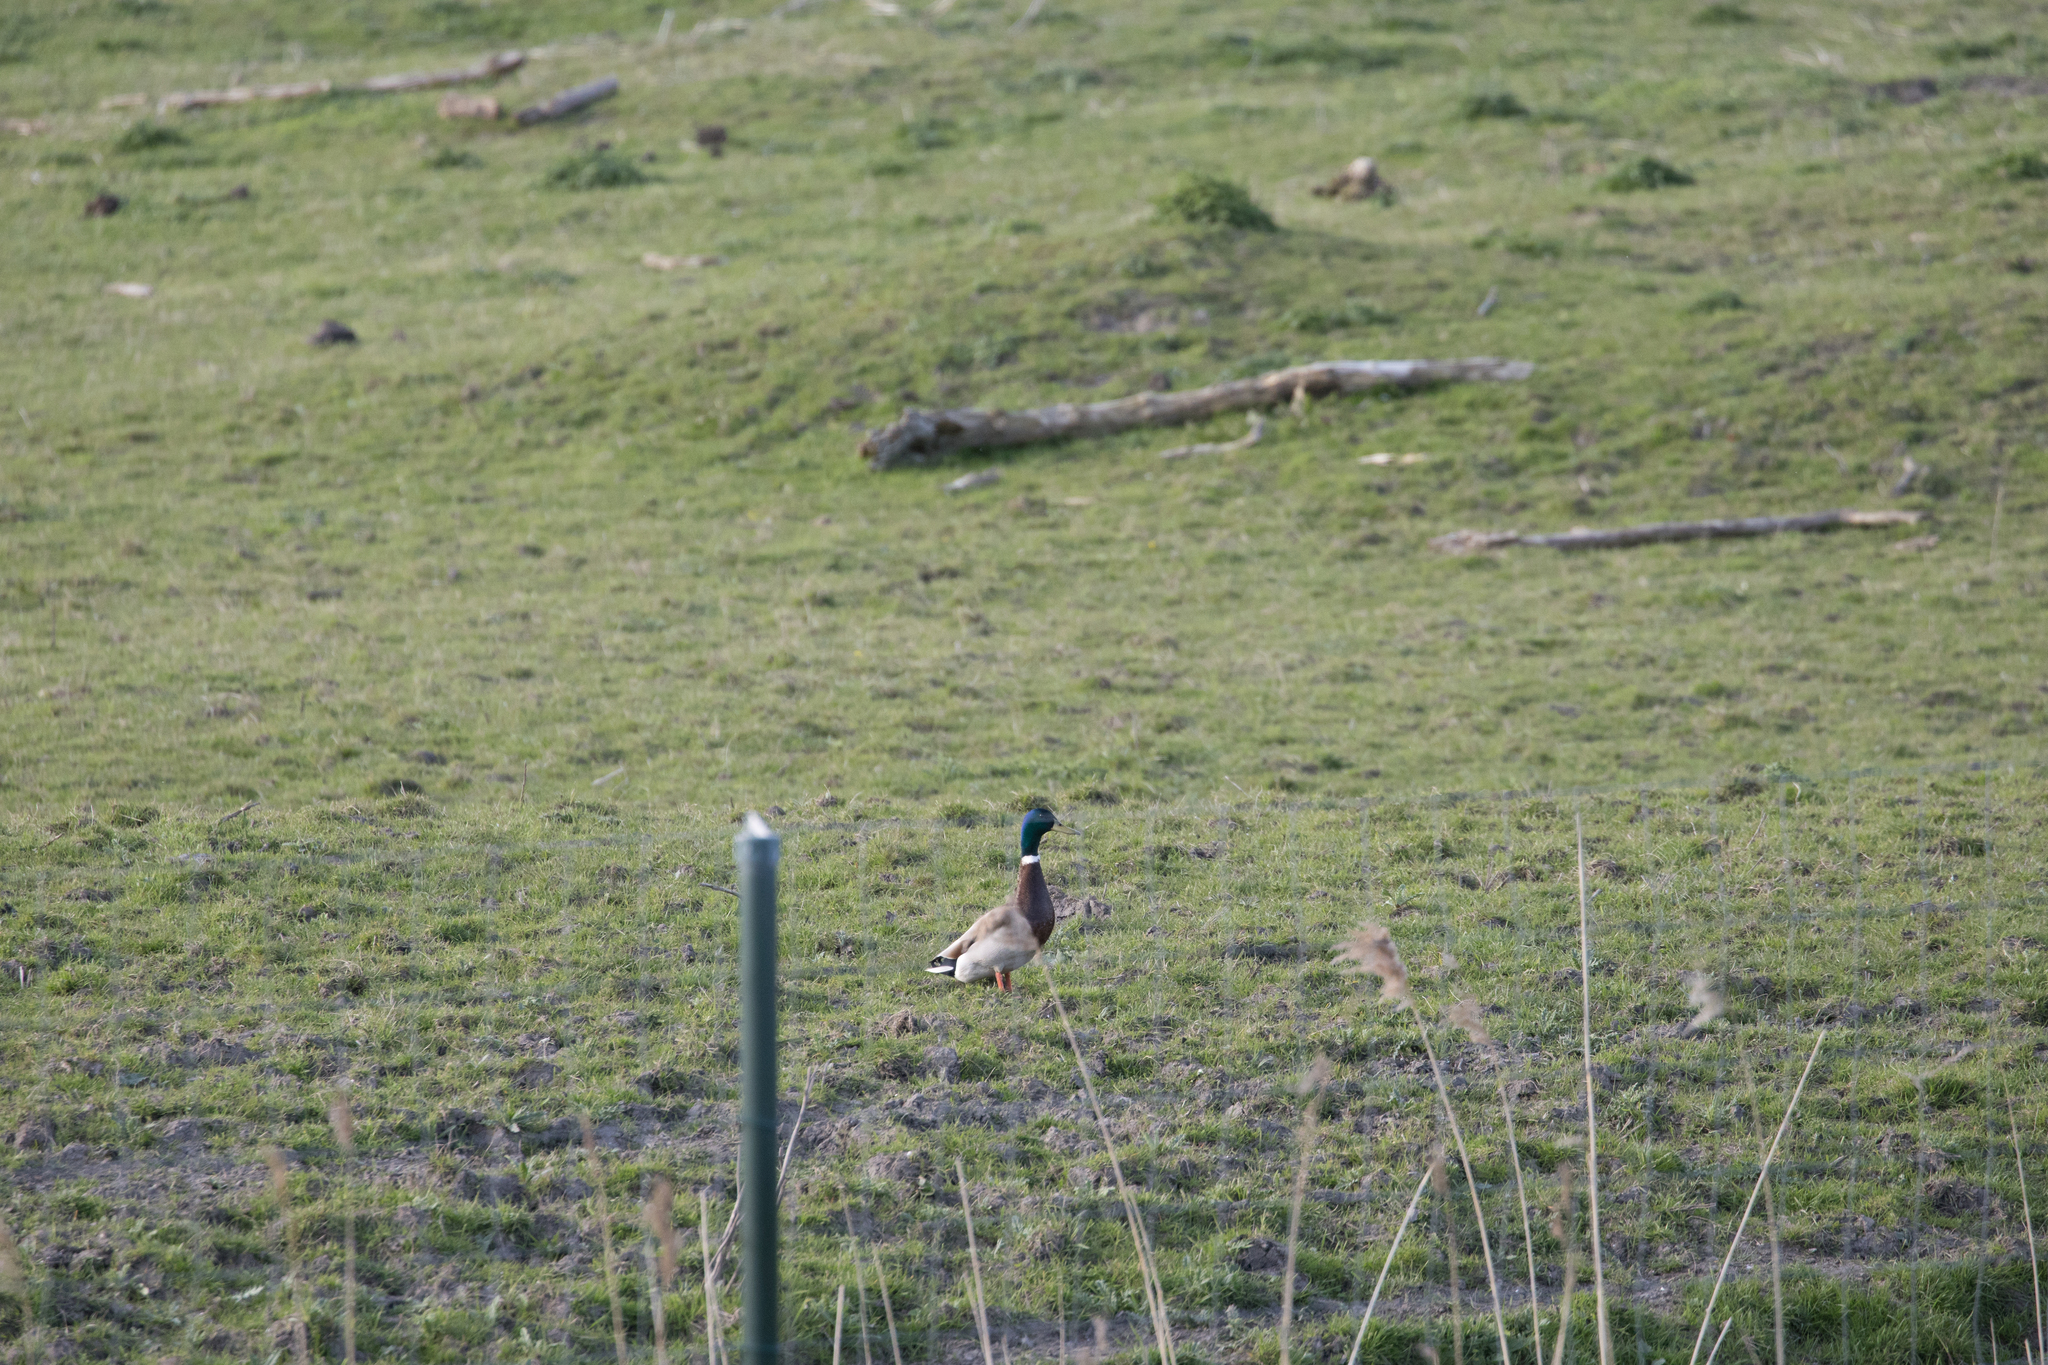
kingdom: Animalia
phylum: Chordata
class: Aves
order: Anseriformes
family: Anatidae
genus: Anas
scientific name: Anas platyrhynchos
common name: Mallard
